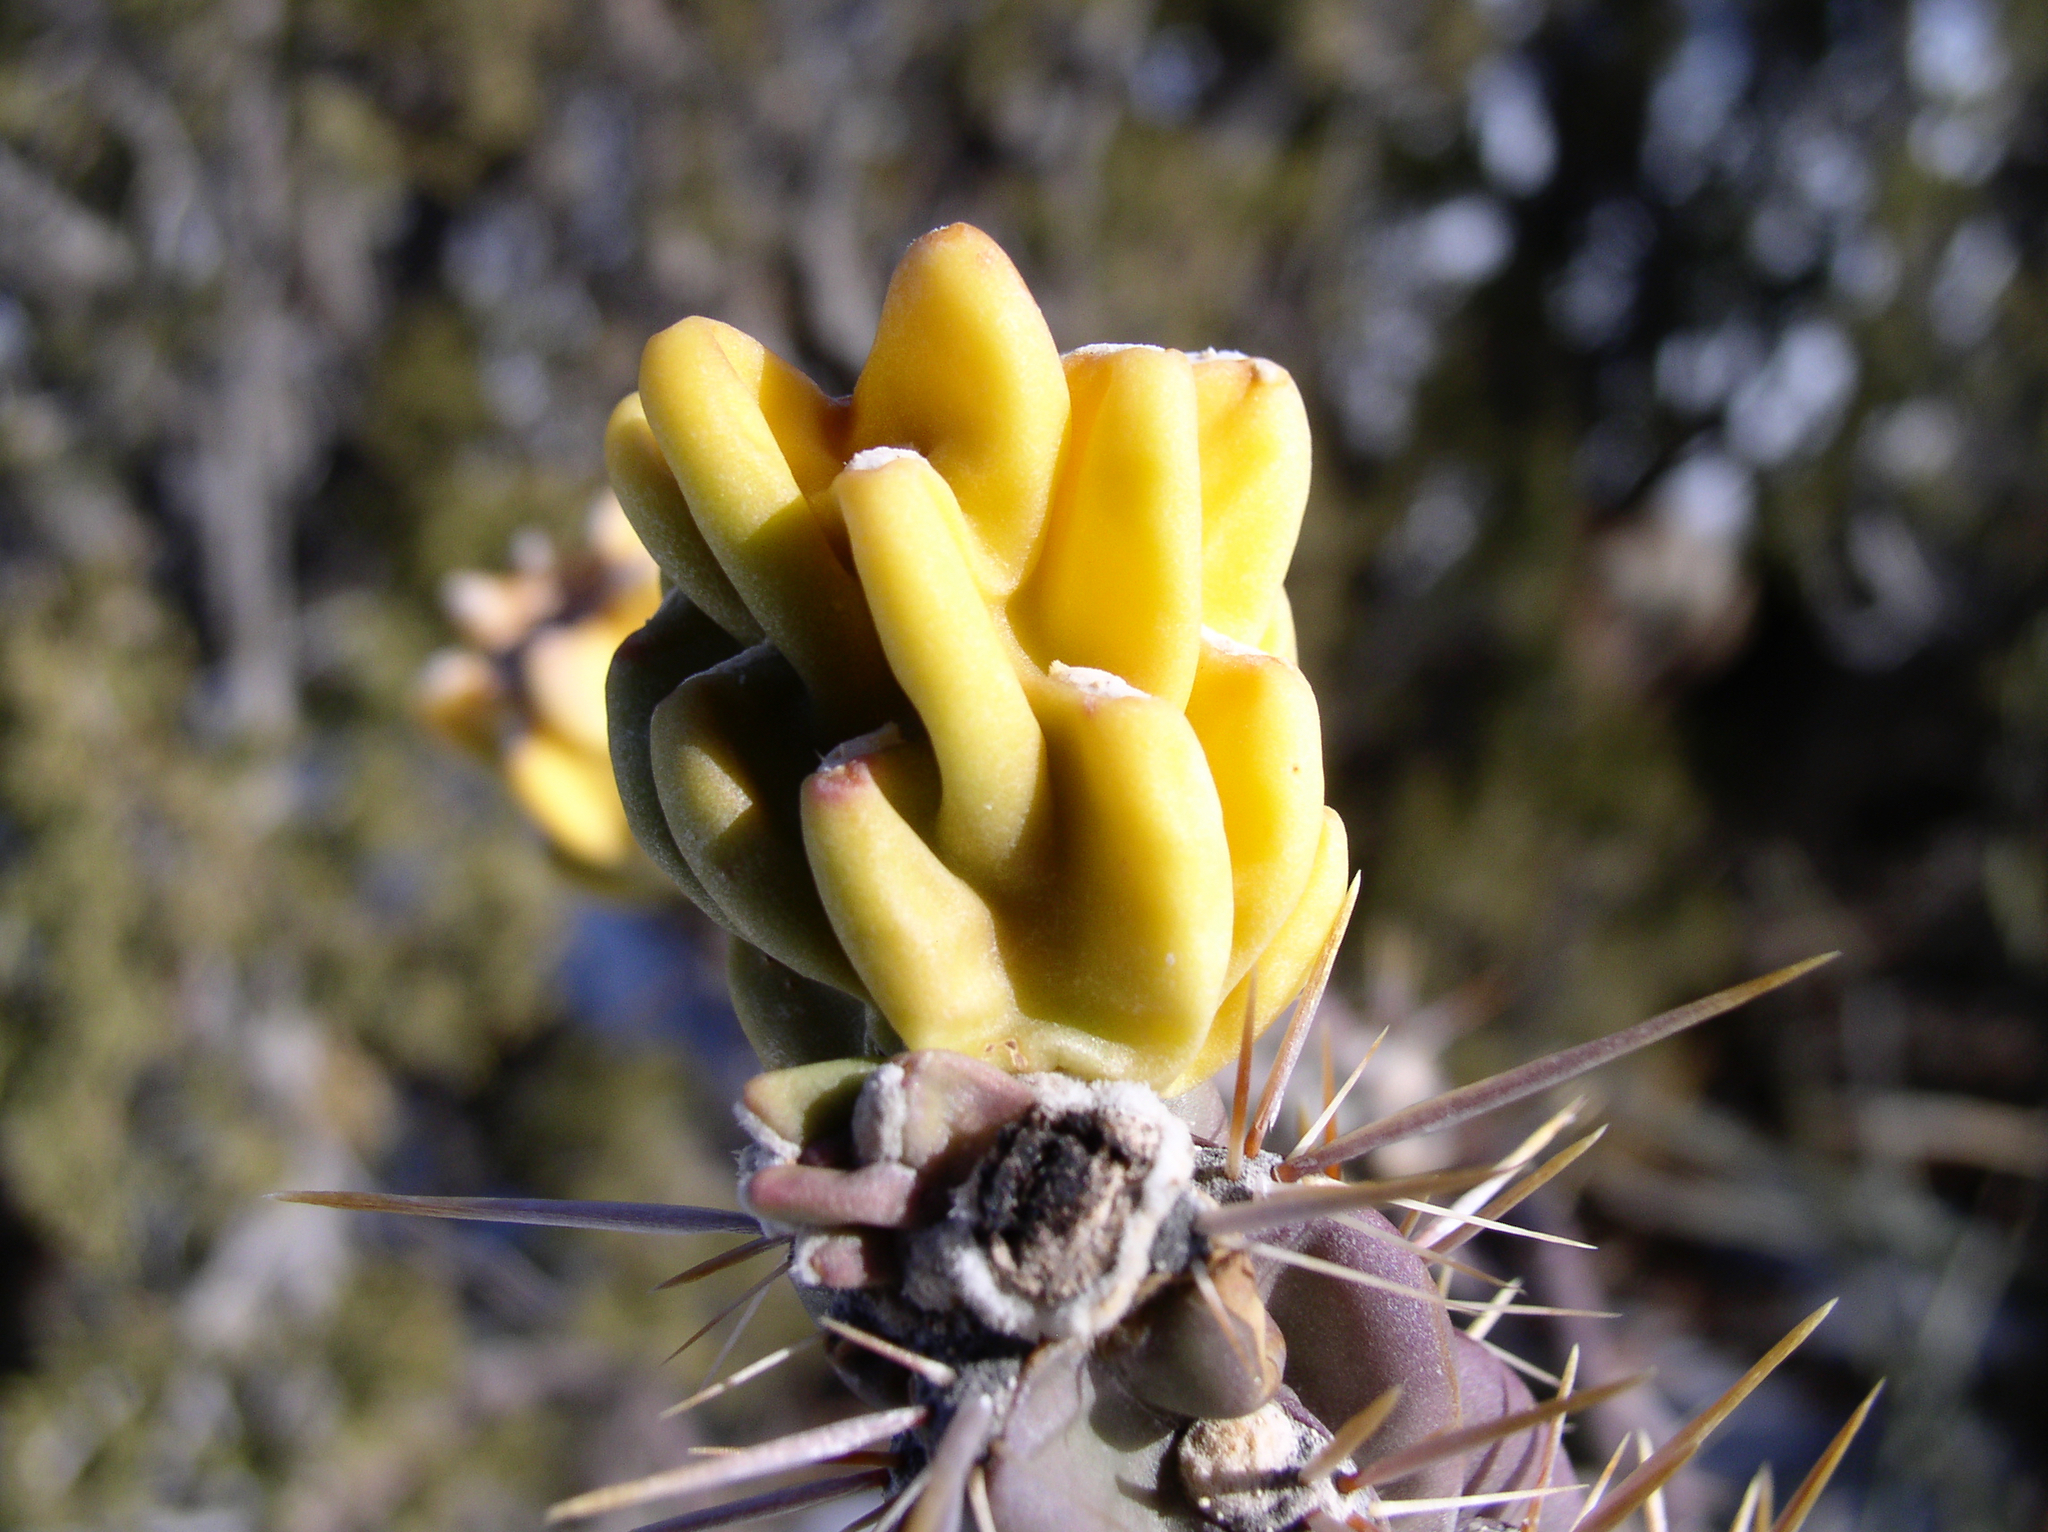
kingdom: Plantae
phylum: Tracheophyta
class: Magnoliopsida
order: Caryophyllales
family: Cactaceae
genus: Cylindropuntia
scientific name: Cylindropuntia imbricata
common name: Candelabrum cactus
